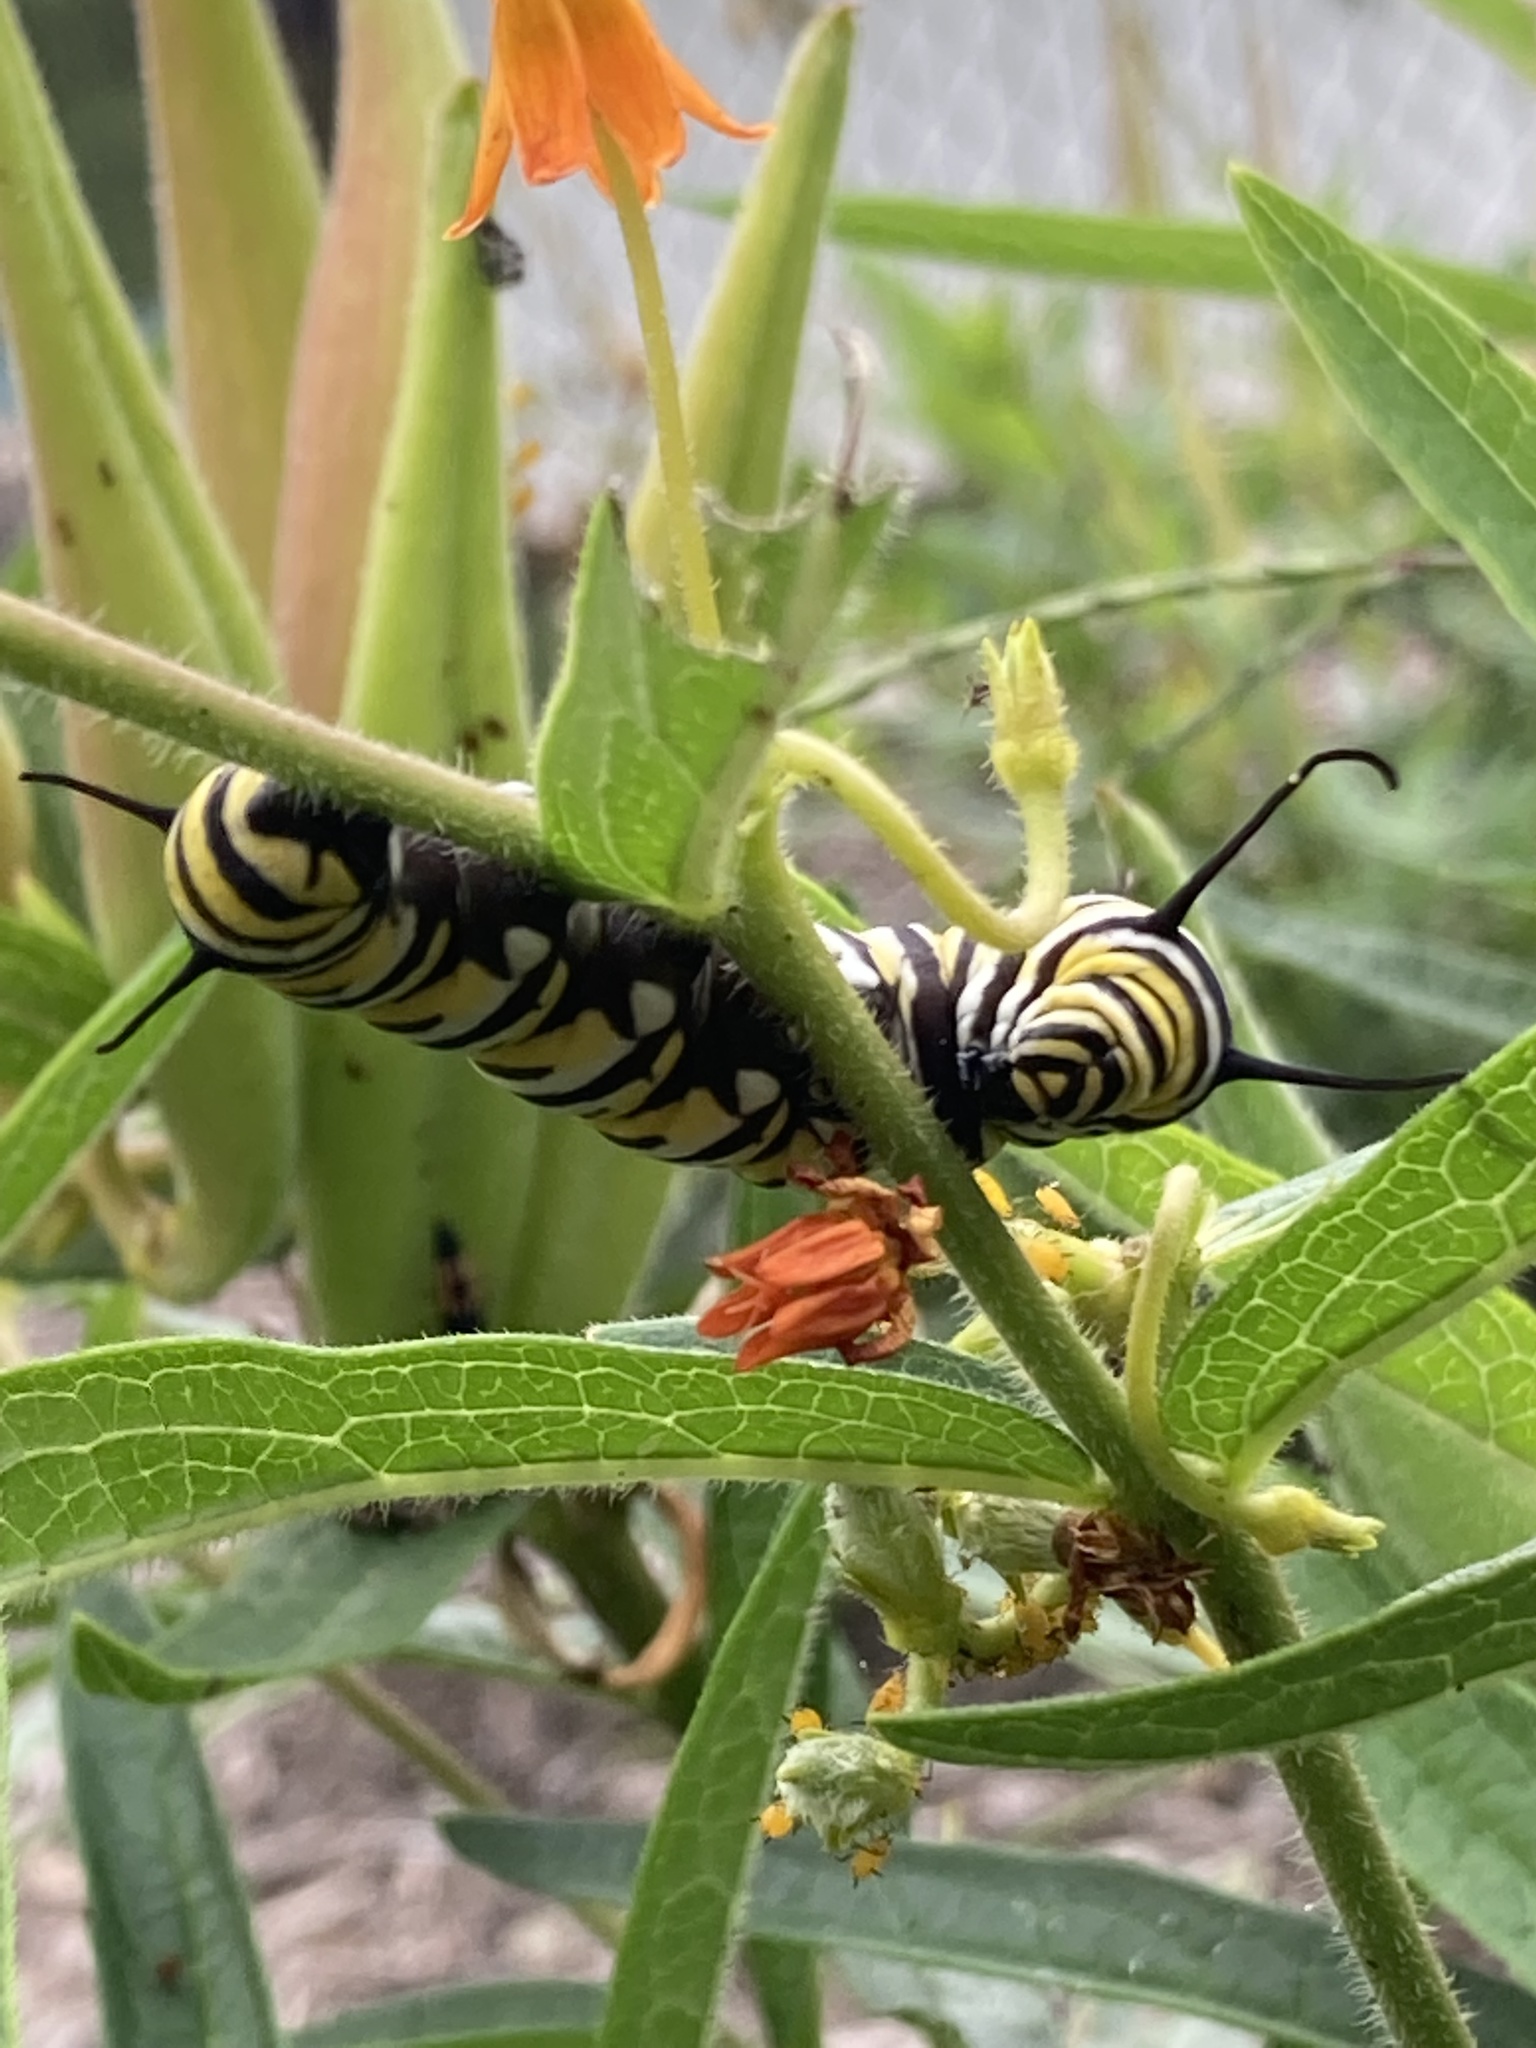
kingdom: Animalia
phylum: Arthropoda
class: Insecta
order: Lepidoptera
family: Nymphalidae
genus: Danaus
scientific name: Danaus plexippus
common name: Monarch
